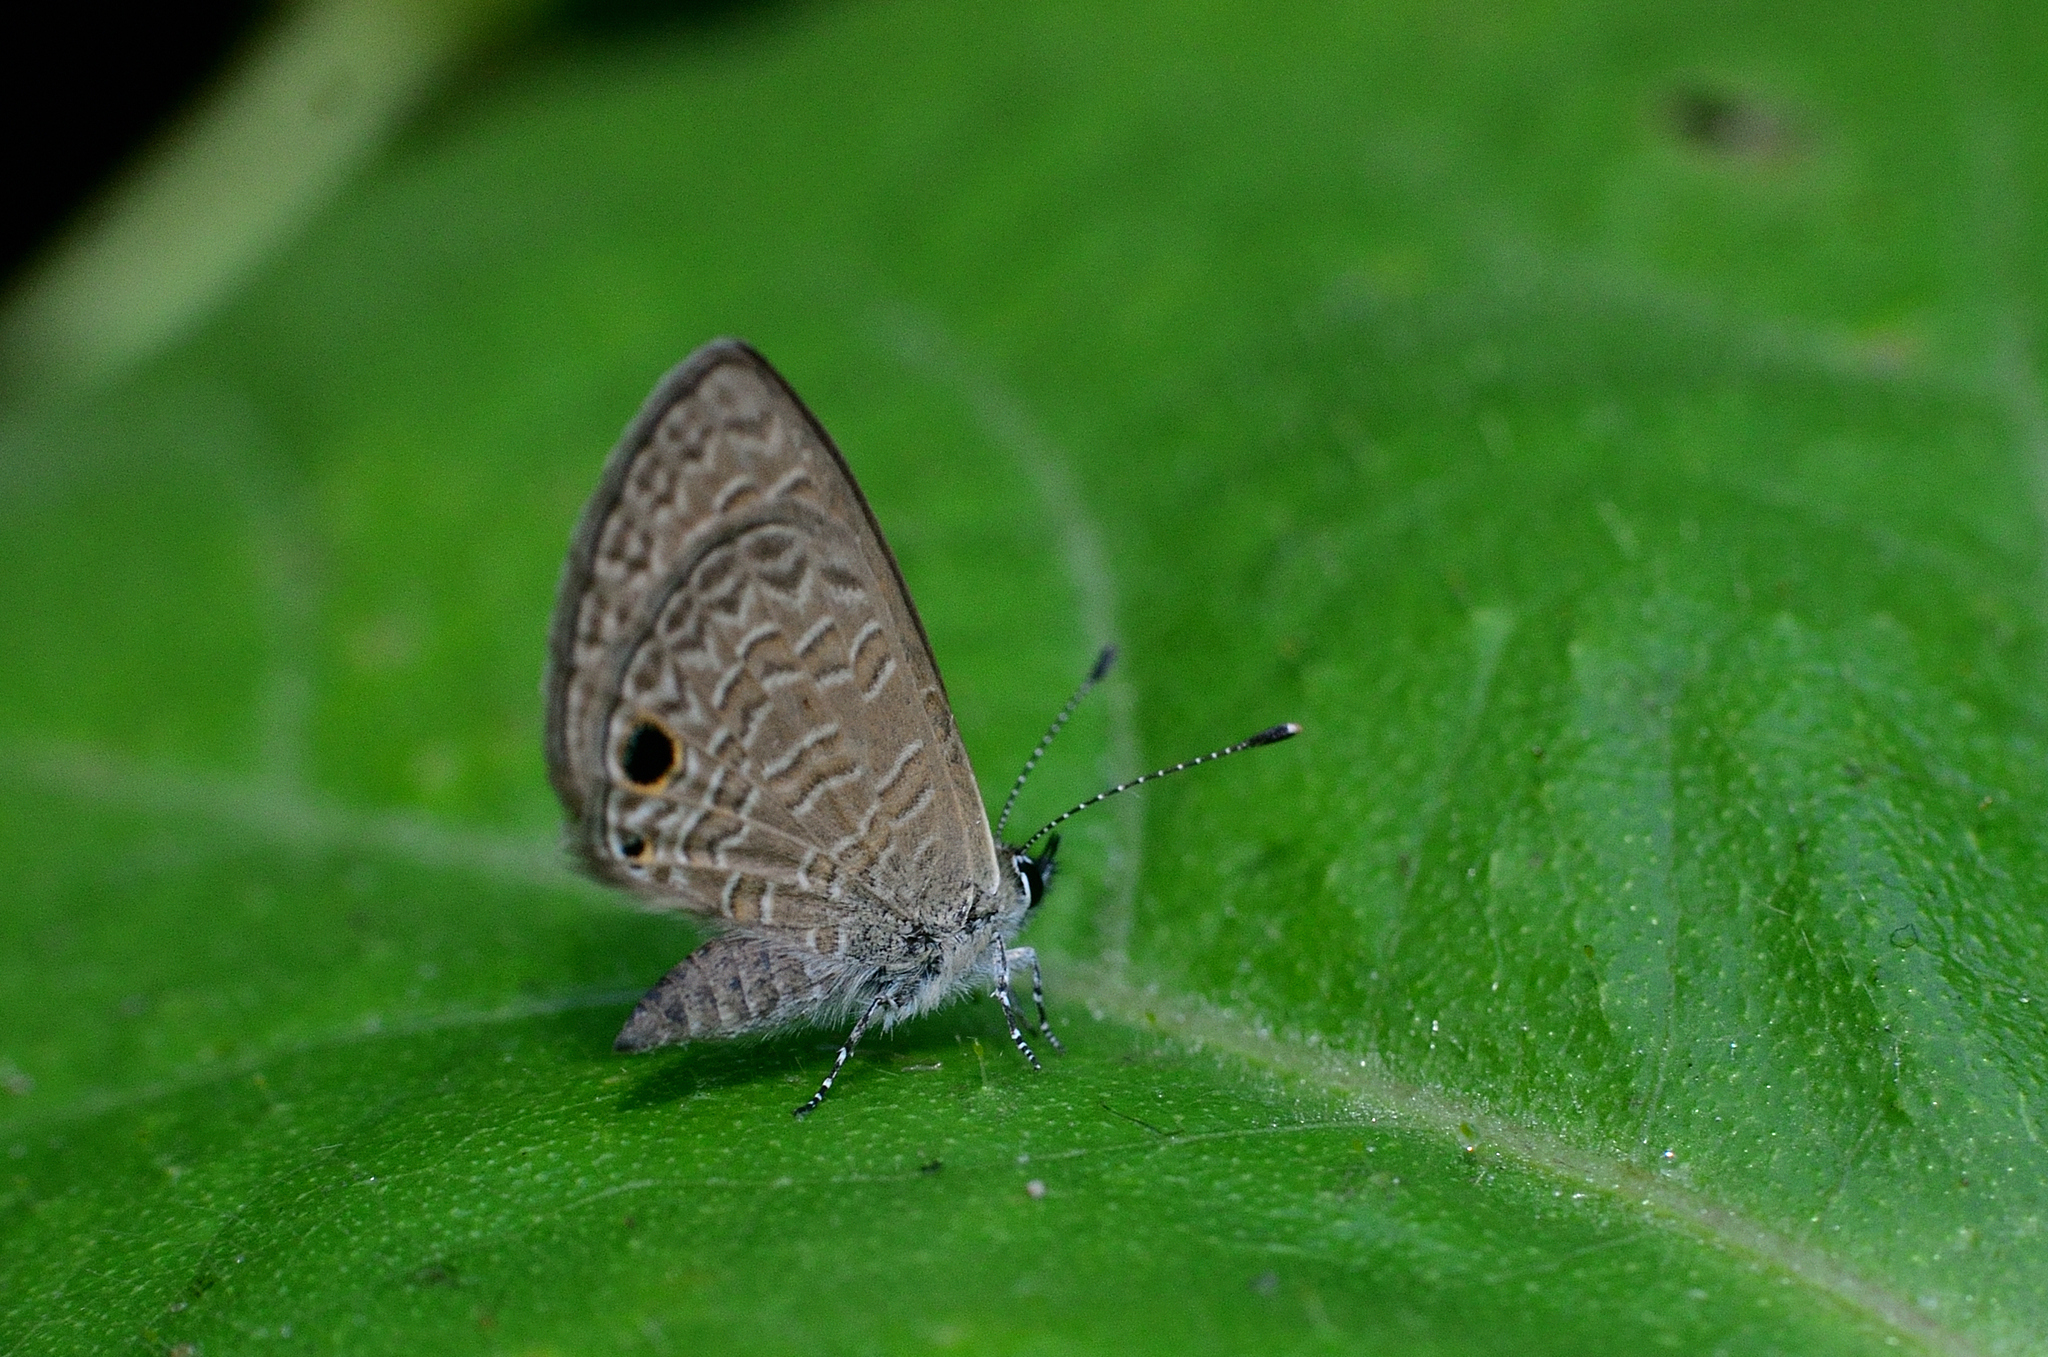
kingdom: Animalia
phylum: Arthropoda
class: Insecta
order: Lepidoptera
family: Lycaenidae
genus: Prosotas
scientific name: Prosotas dubiosa
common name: Tailless lineblue
